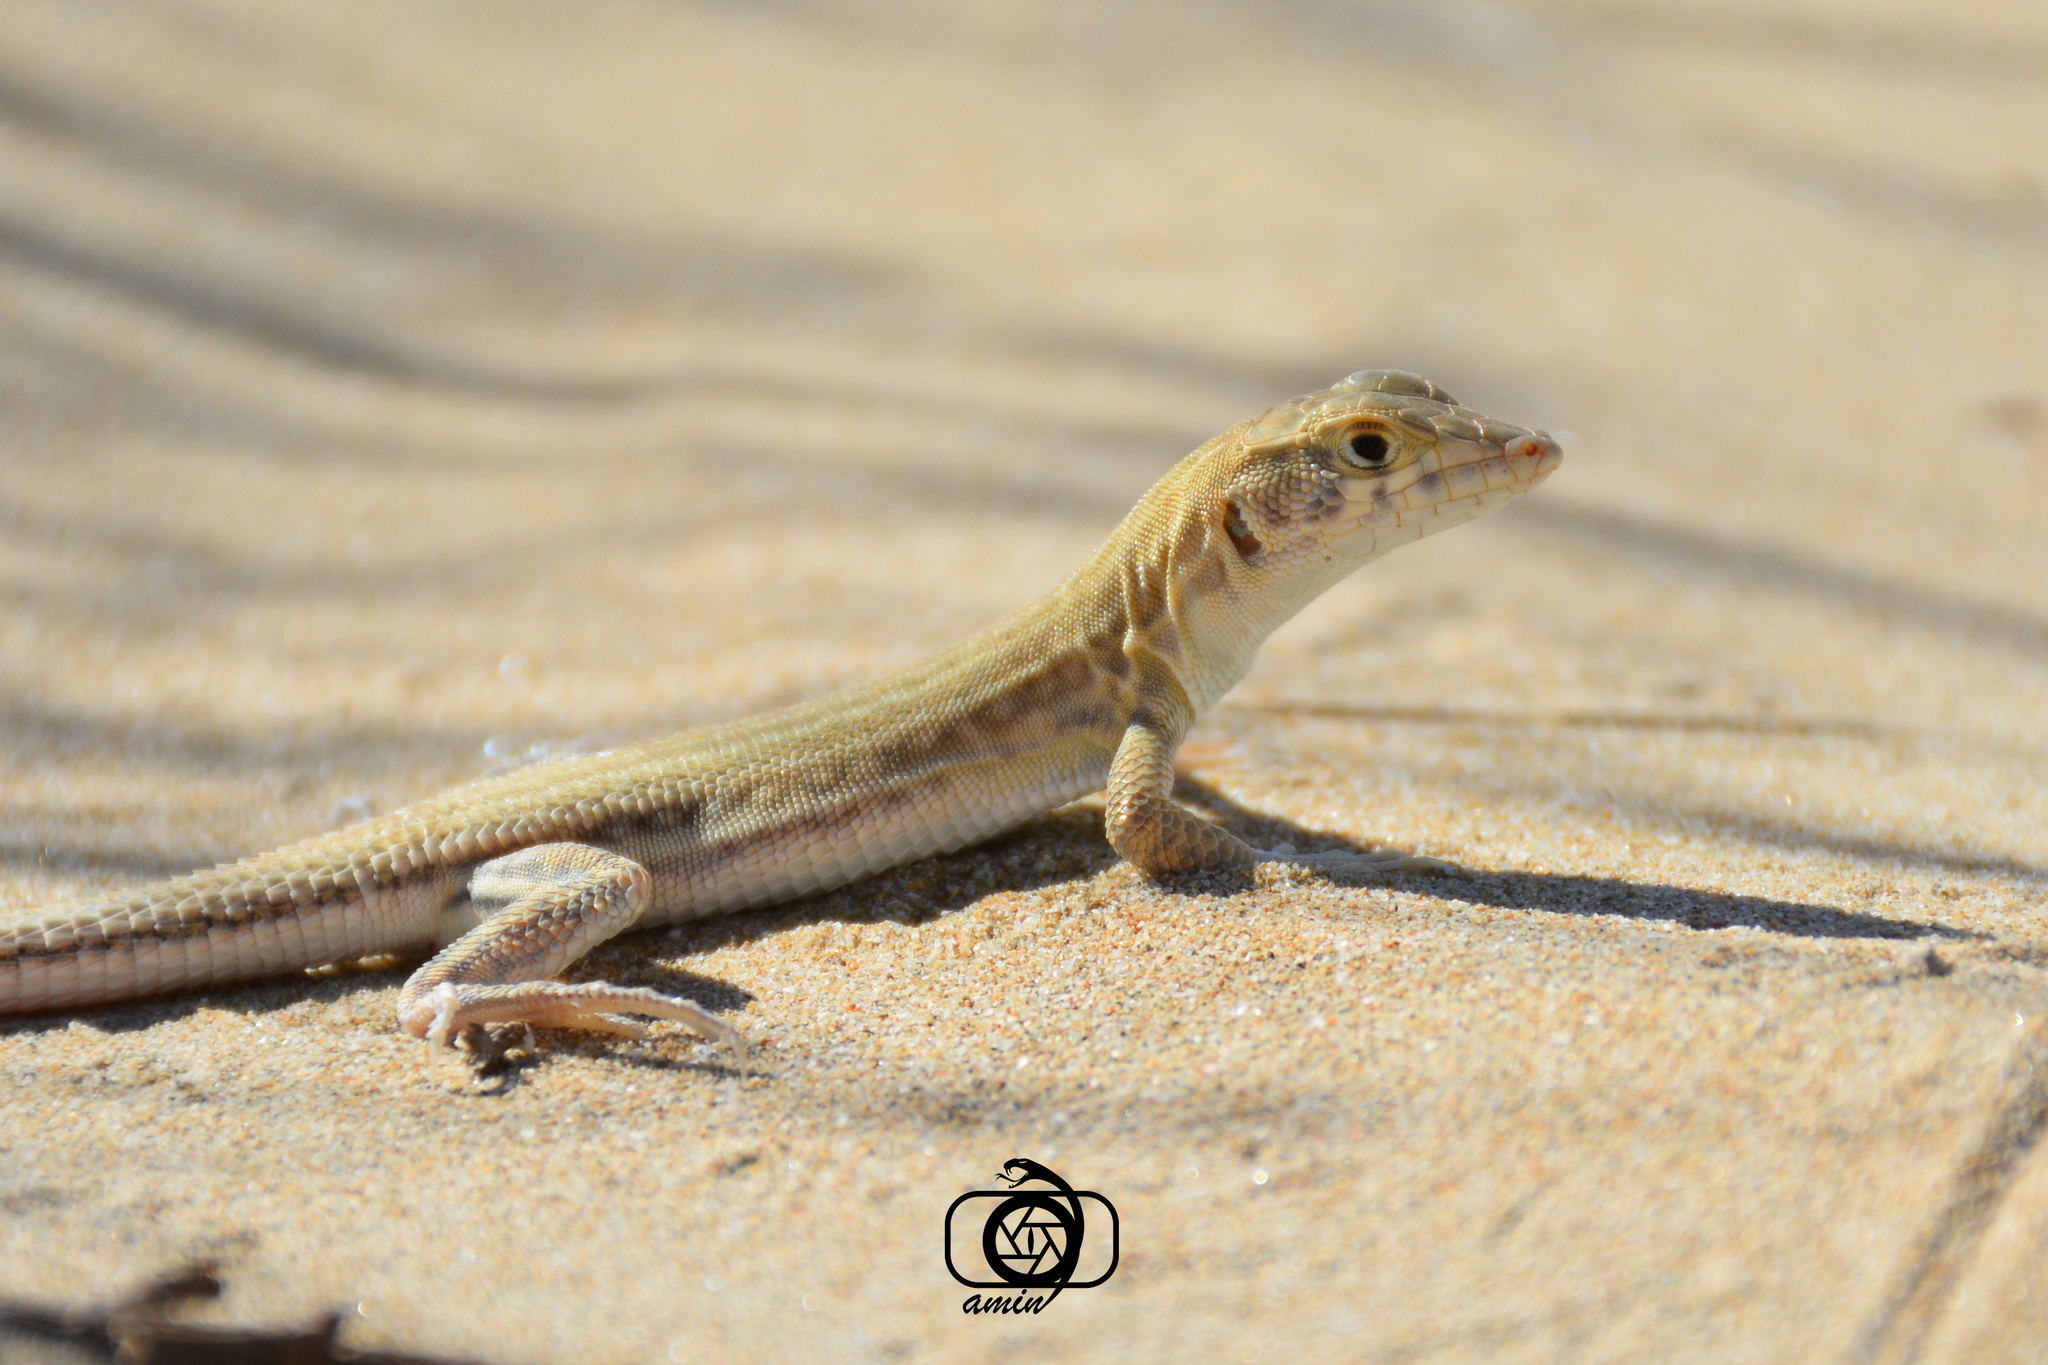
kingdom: Animalia
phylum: Chordata
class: Squamata
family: Lacertidae
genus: Acanthodactylus
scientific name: Acanthodactylus blanfordii
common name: Blanford's fringe-fingered lizard
